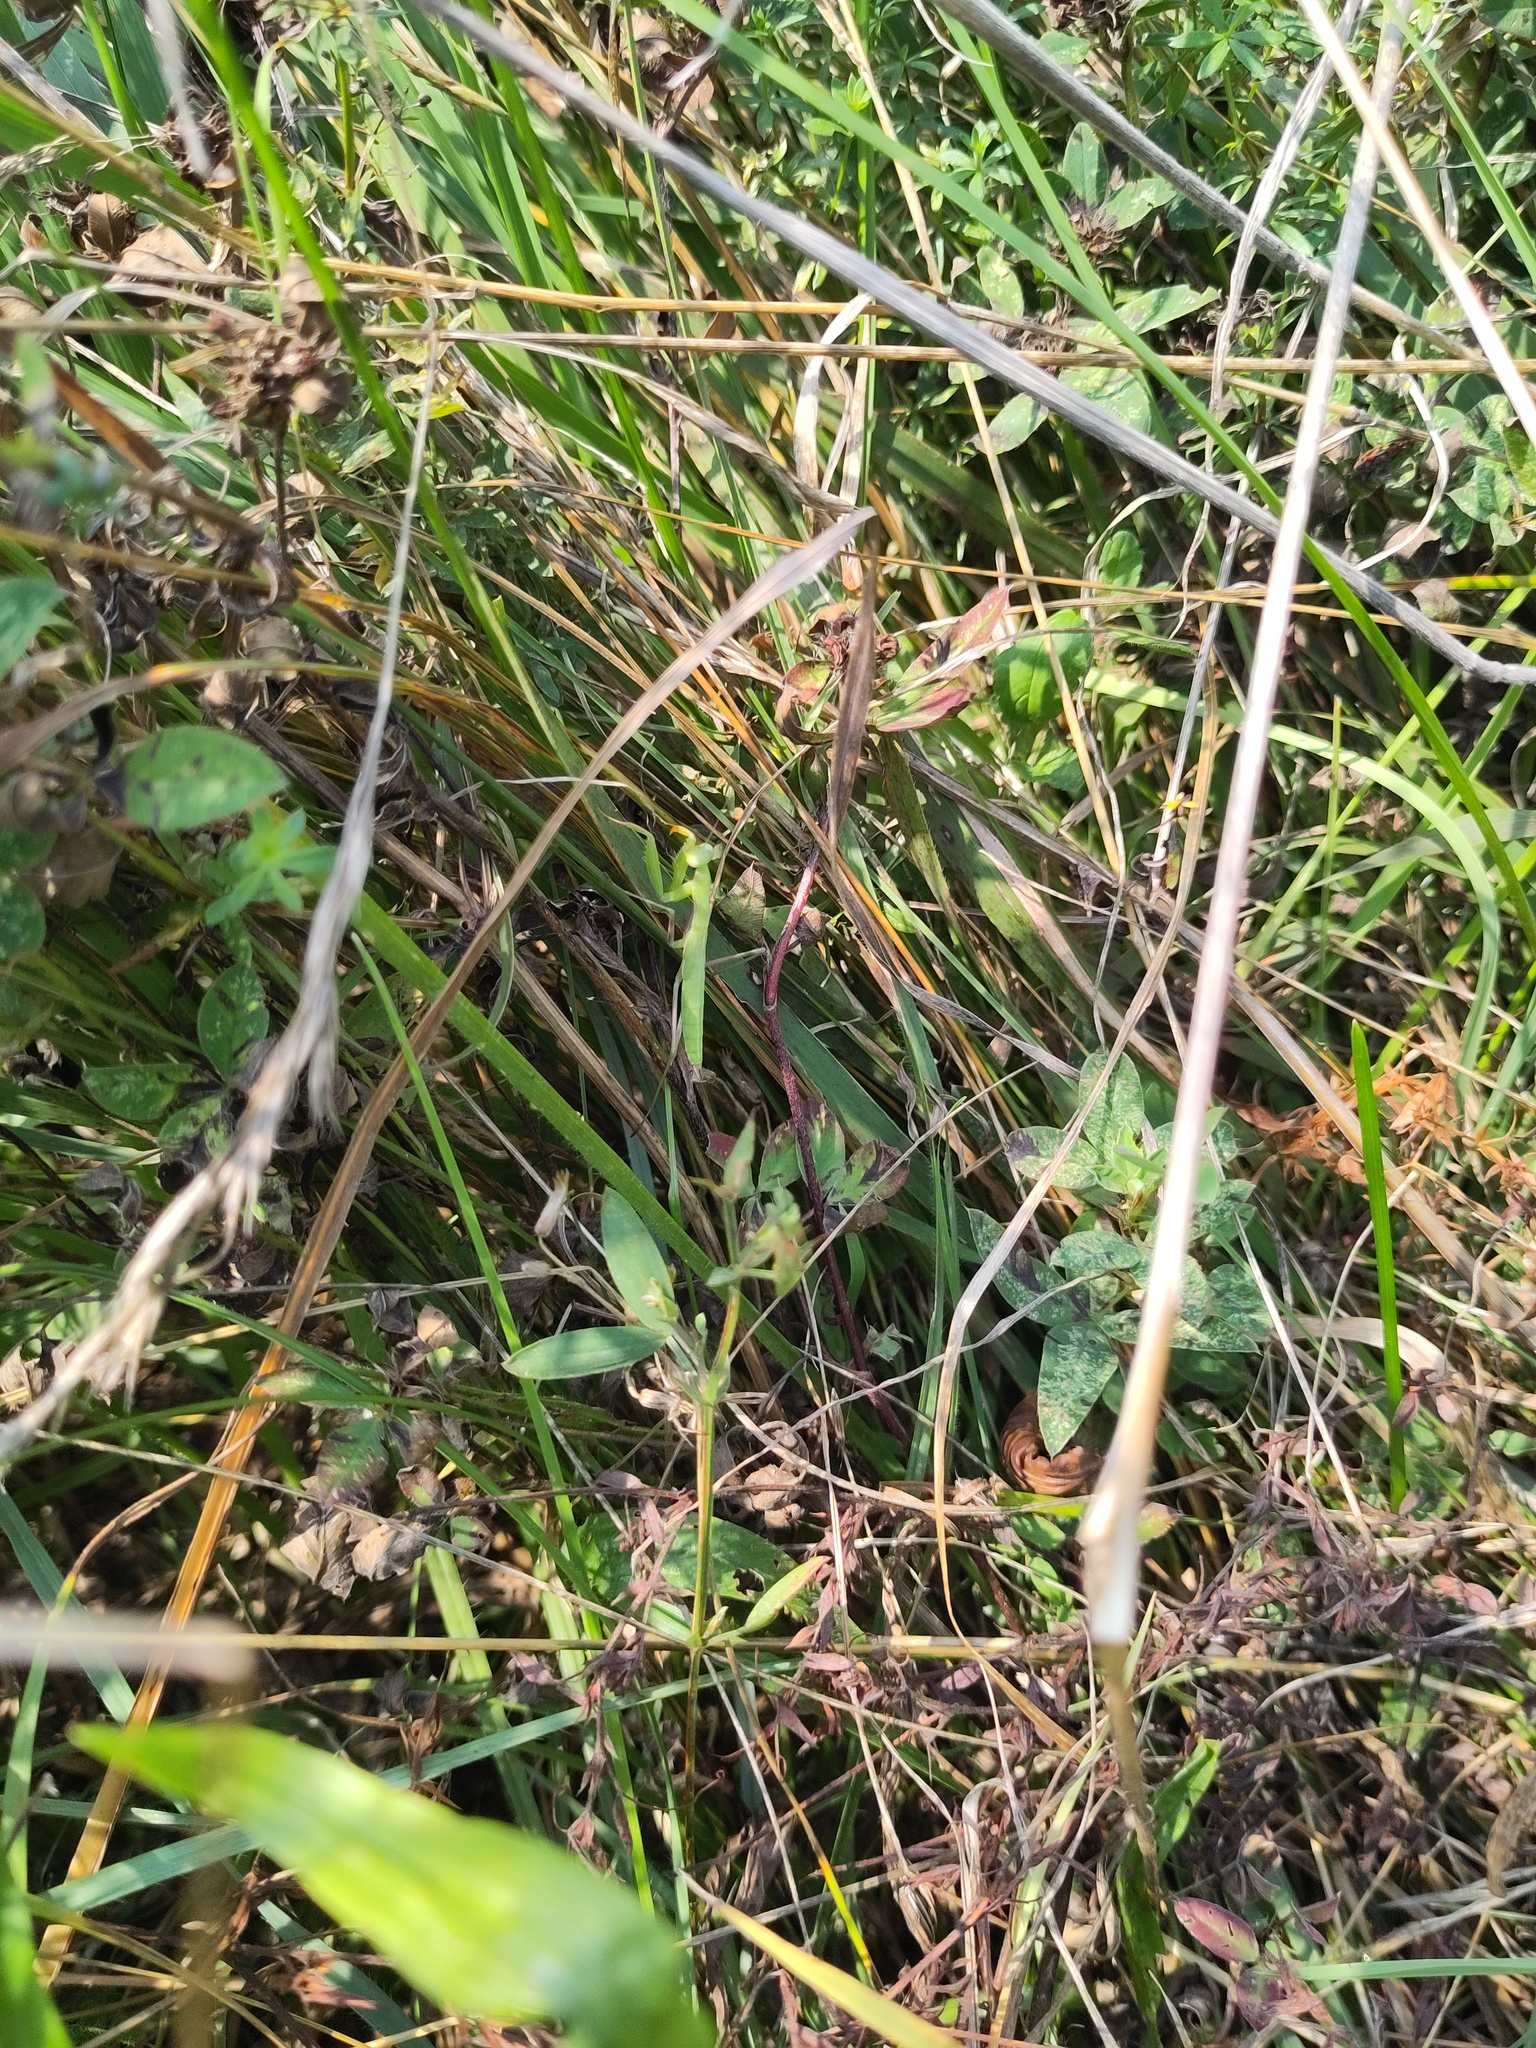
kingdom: Animalia
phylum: Arthropoda
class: Insecta
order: Mantodea
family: Mantidae
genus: Mantis
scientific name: Mantis religiosa
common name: Praying mantis
